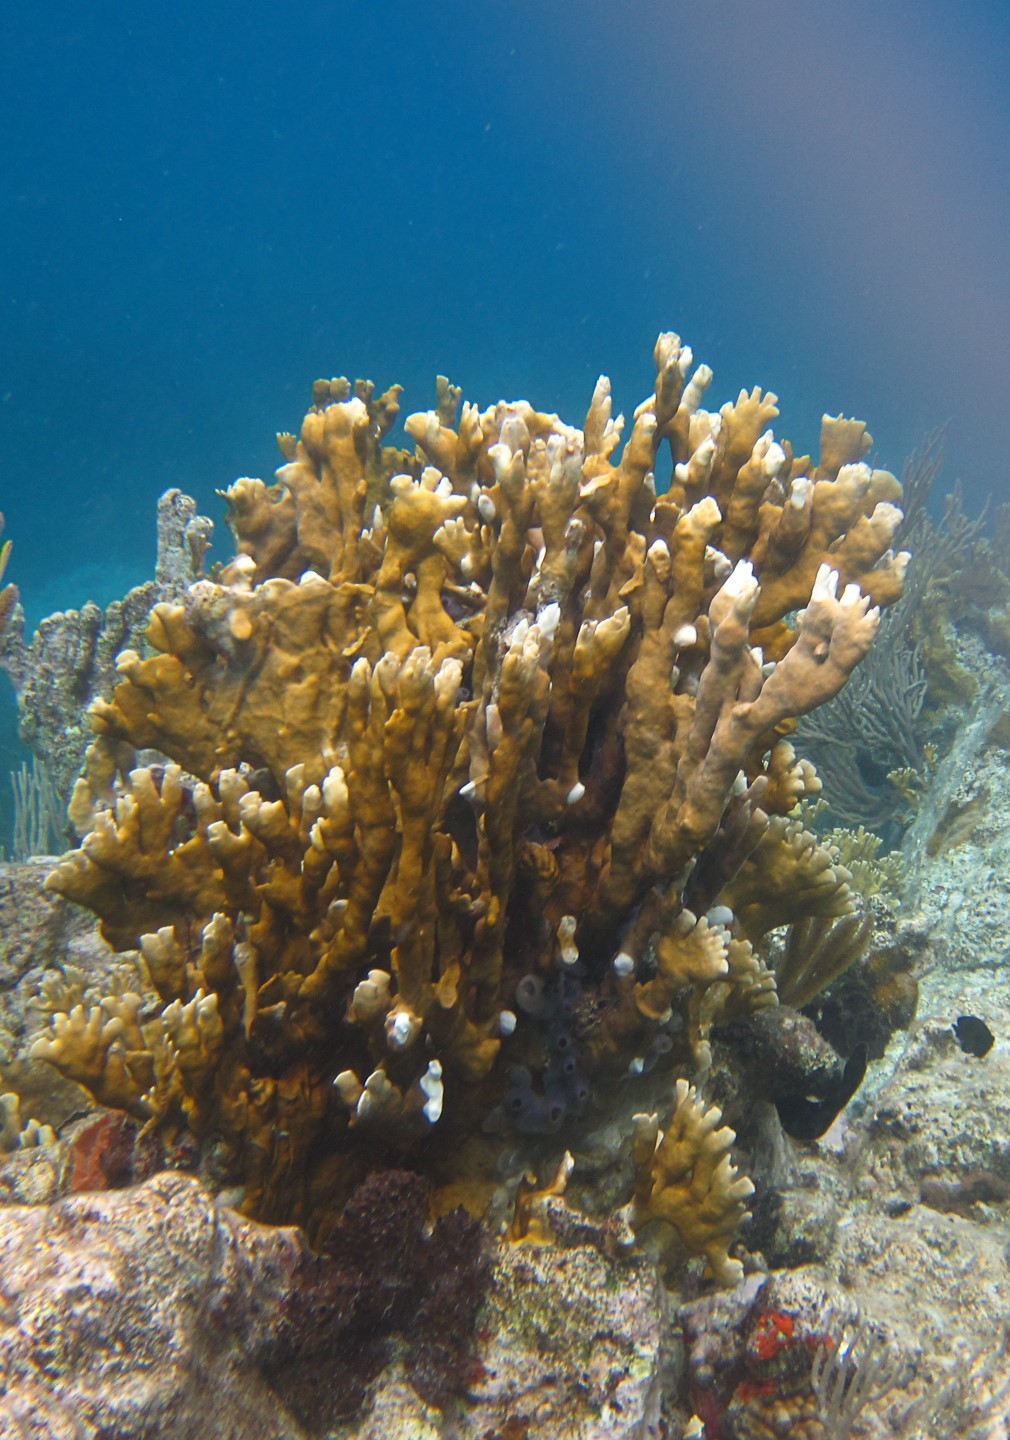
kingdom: Animalia
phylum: Cnidaria
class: Hydrozoa
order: Anthoathecata
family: Milleporidae
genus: Millepora
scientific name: Millepora complanata
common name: Bladed fire coral
